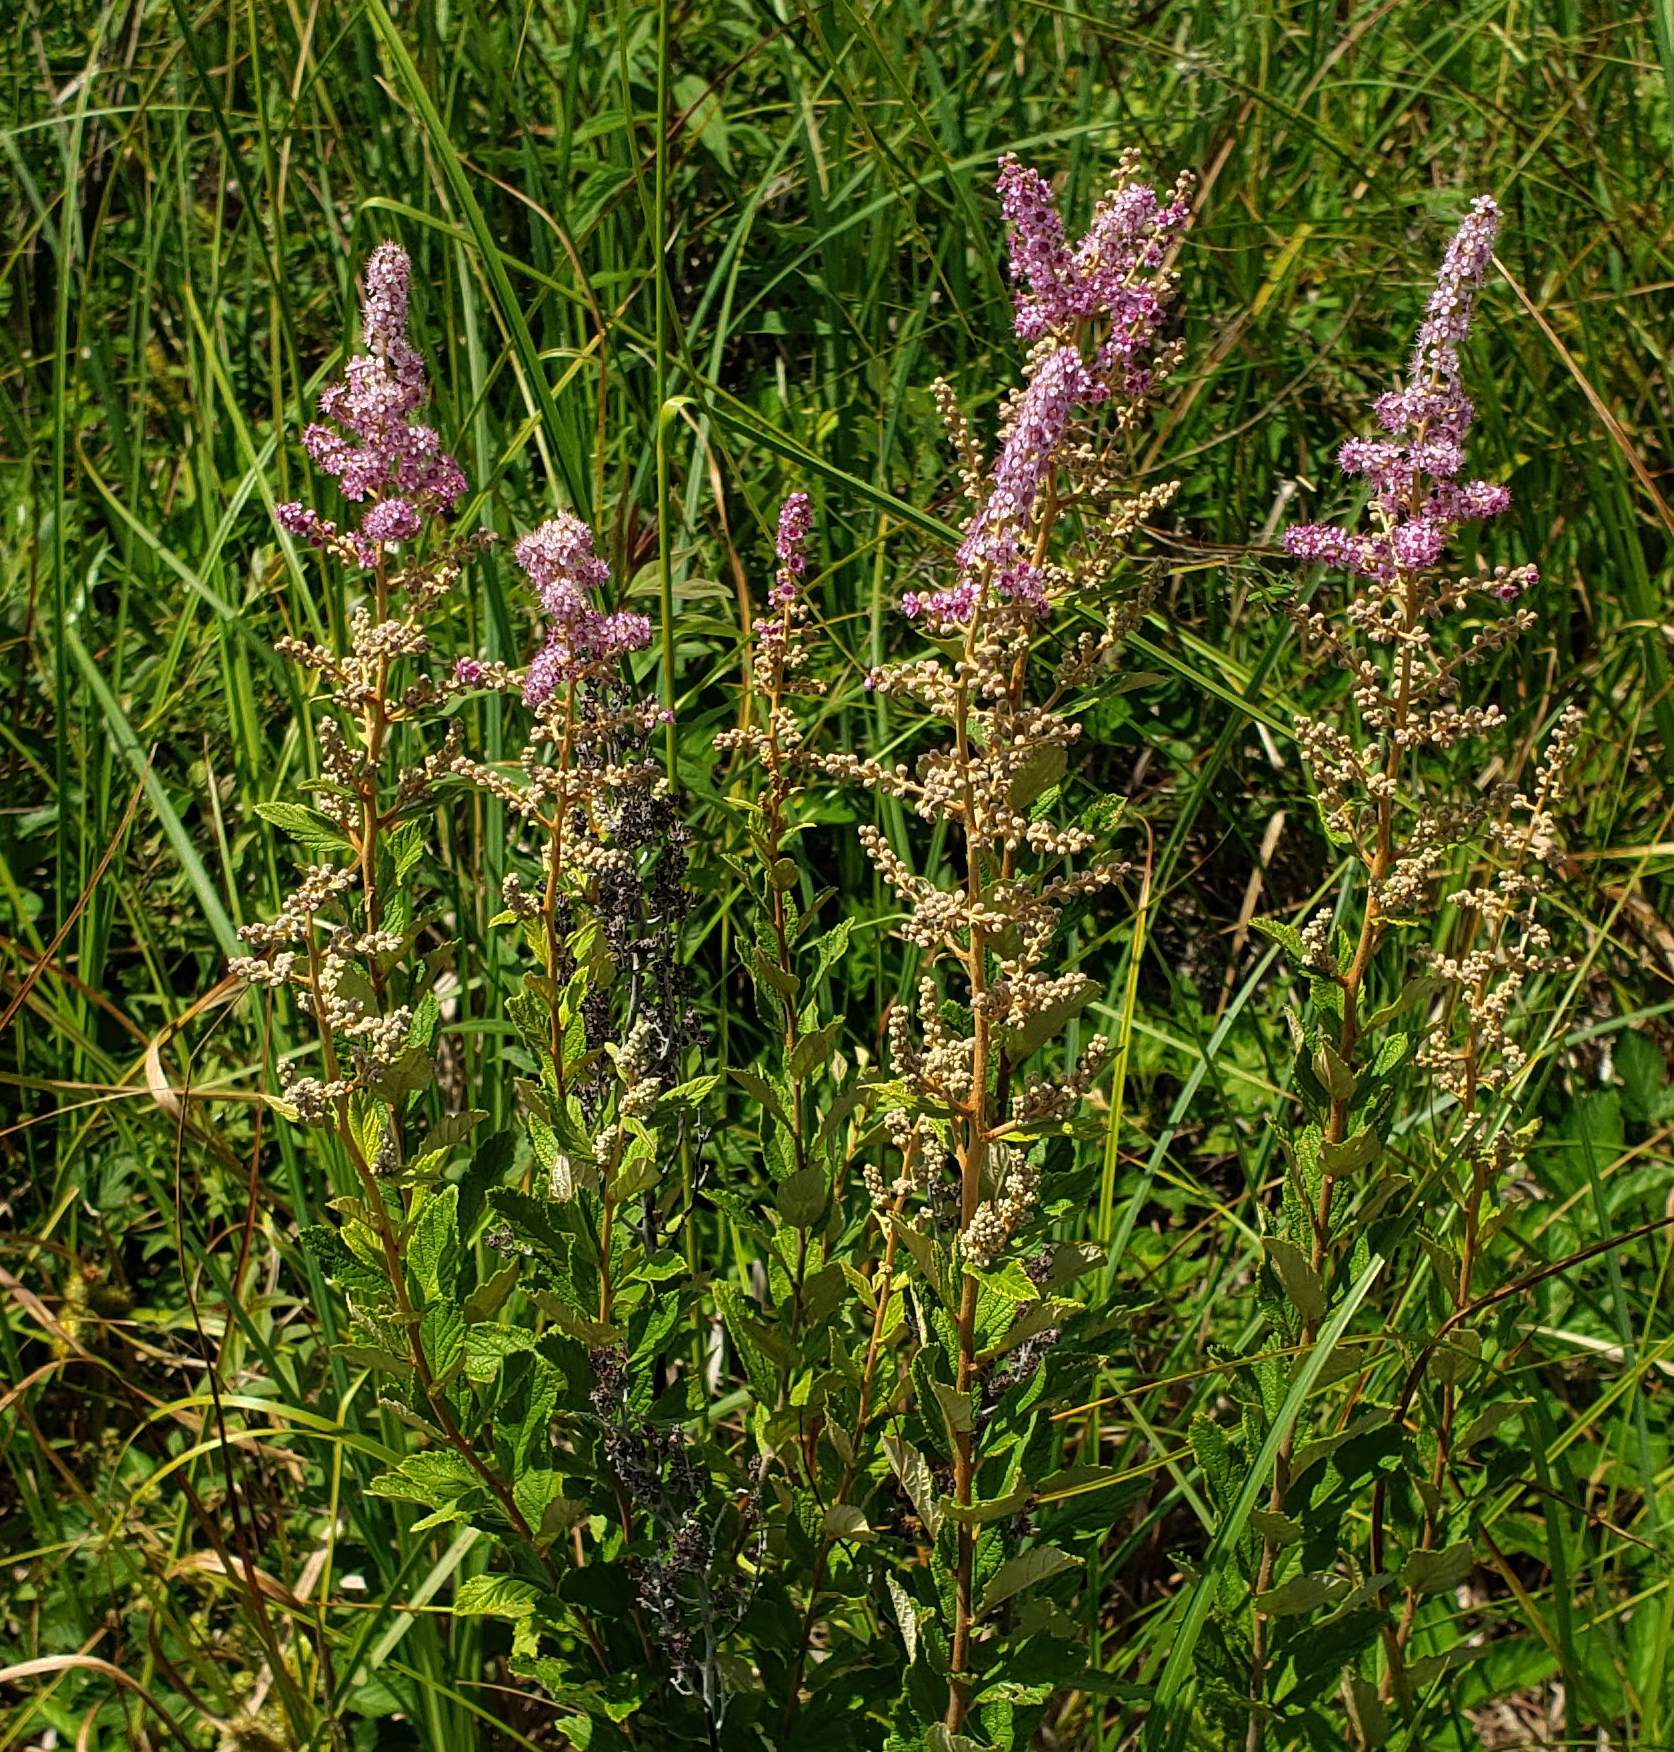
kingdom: Plantae
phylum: Tracheophyta
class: Magnoliopsida
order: Rosales
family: Rosaceae
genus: Spiraea
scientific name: Spiraea tomentosa
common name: Hardhack
